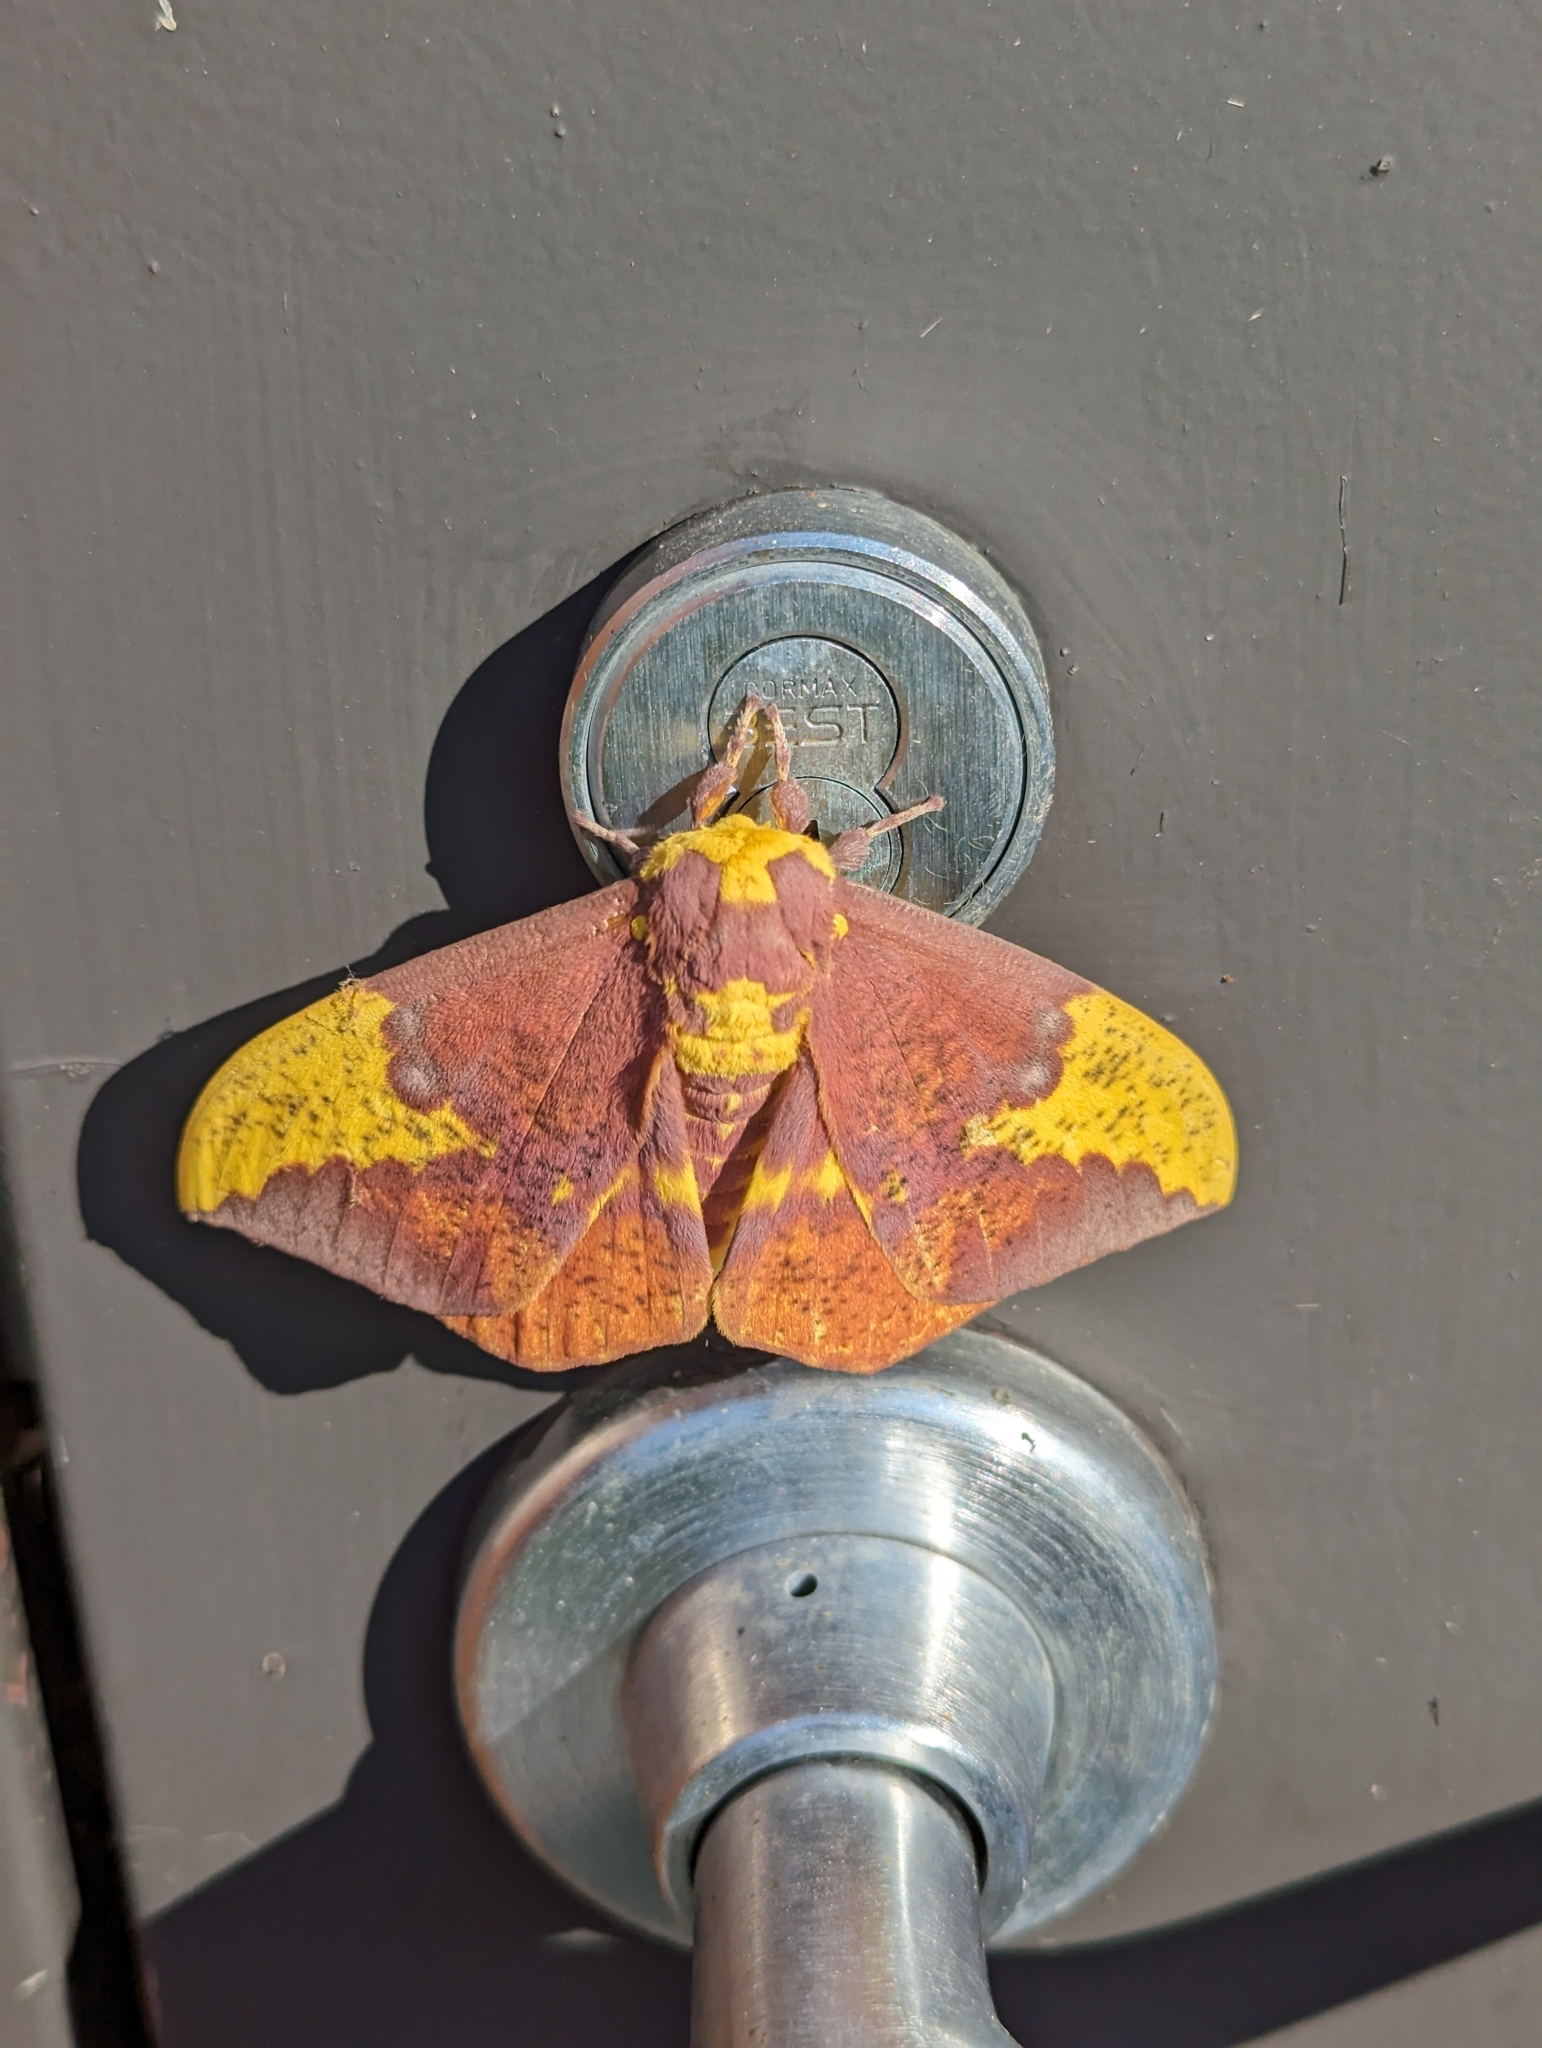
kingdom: Animalia
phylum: Arthropoda
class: Insecta
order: Lepidoptera
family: Saturniidae
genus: Eacles
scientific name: Eacles imperialis
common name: Imperial moth
